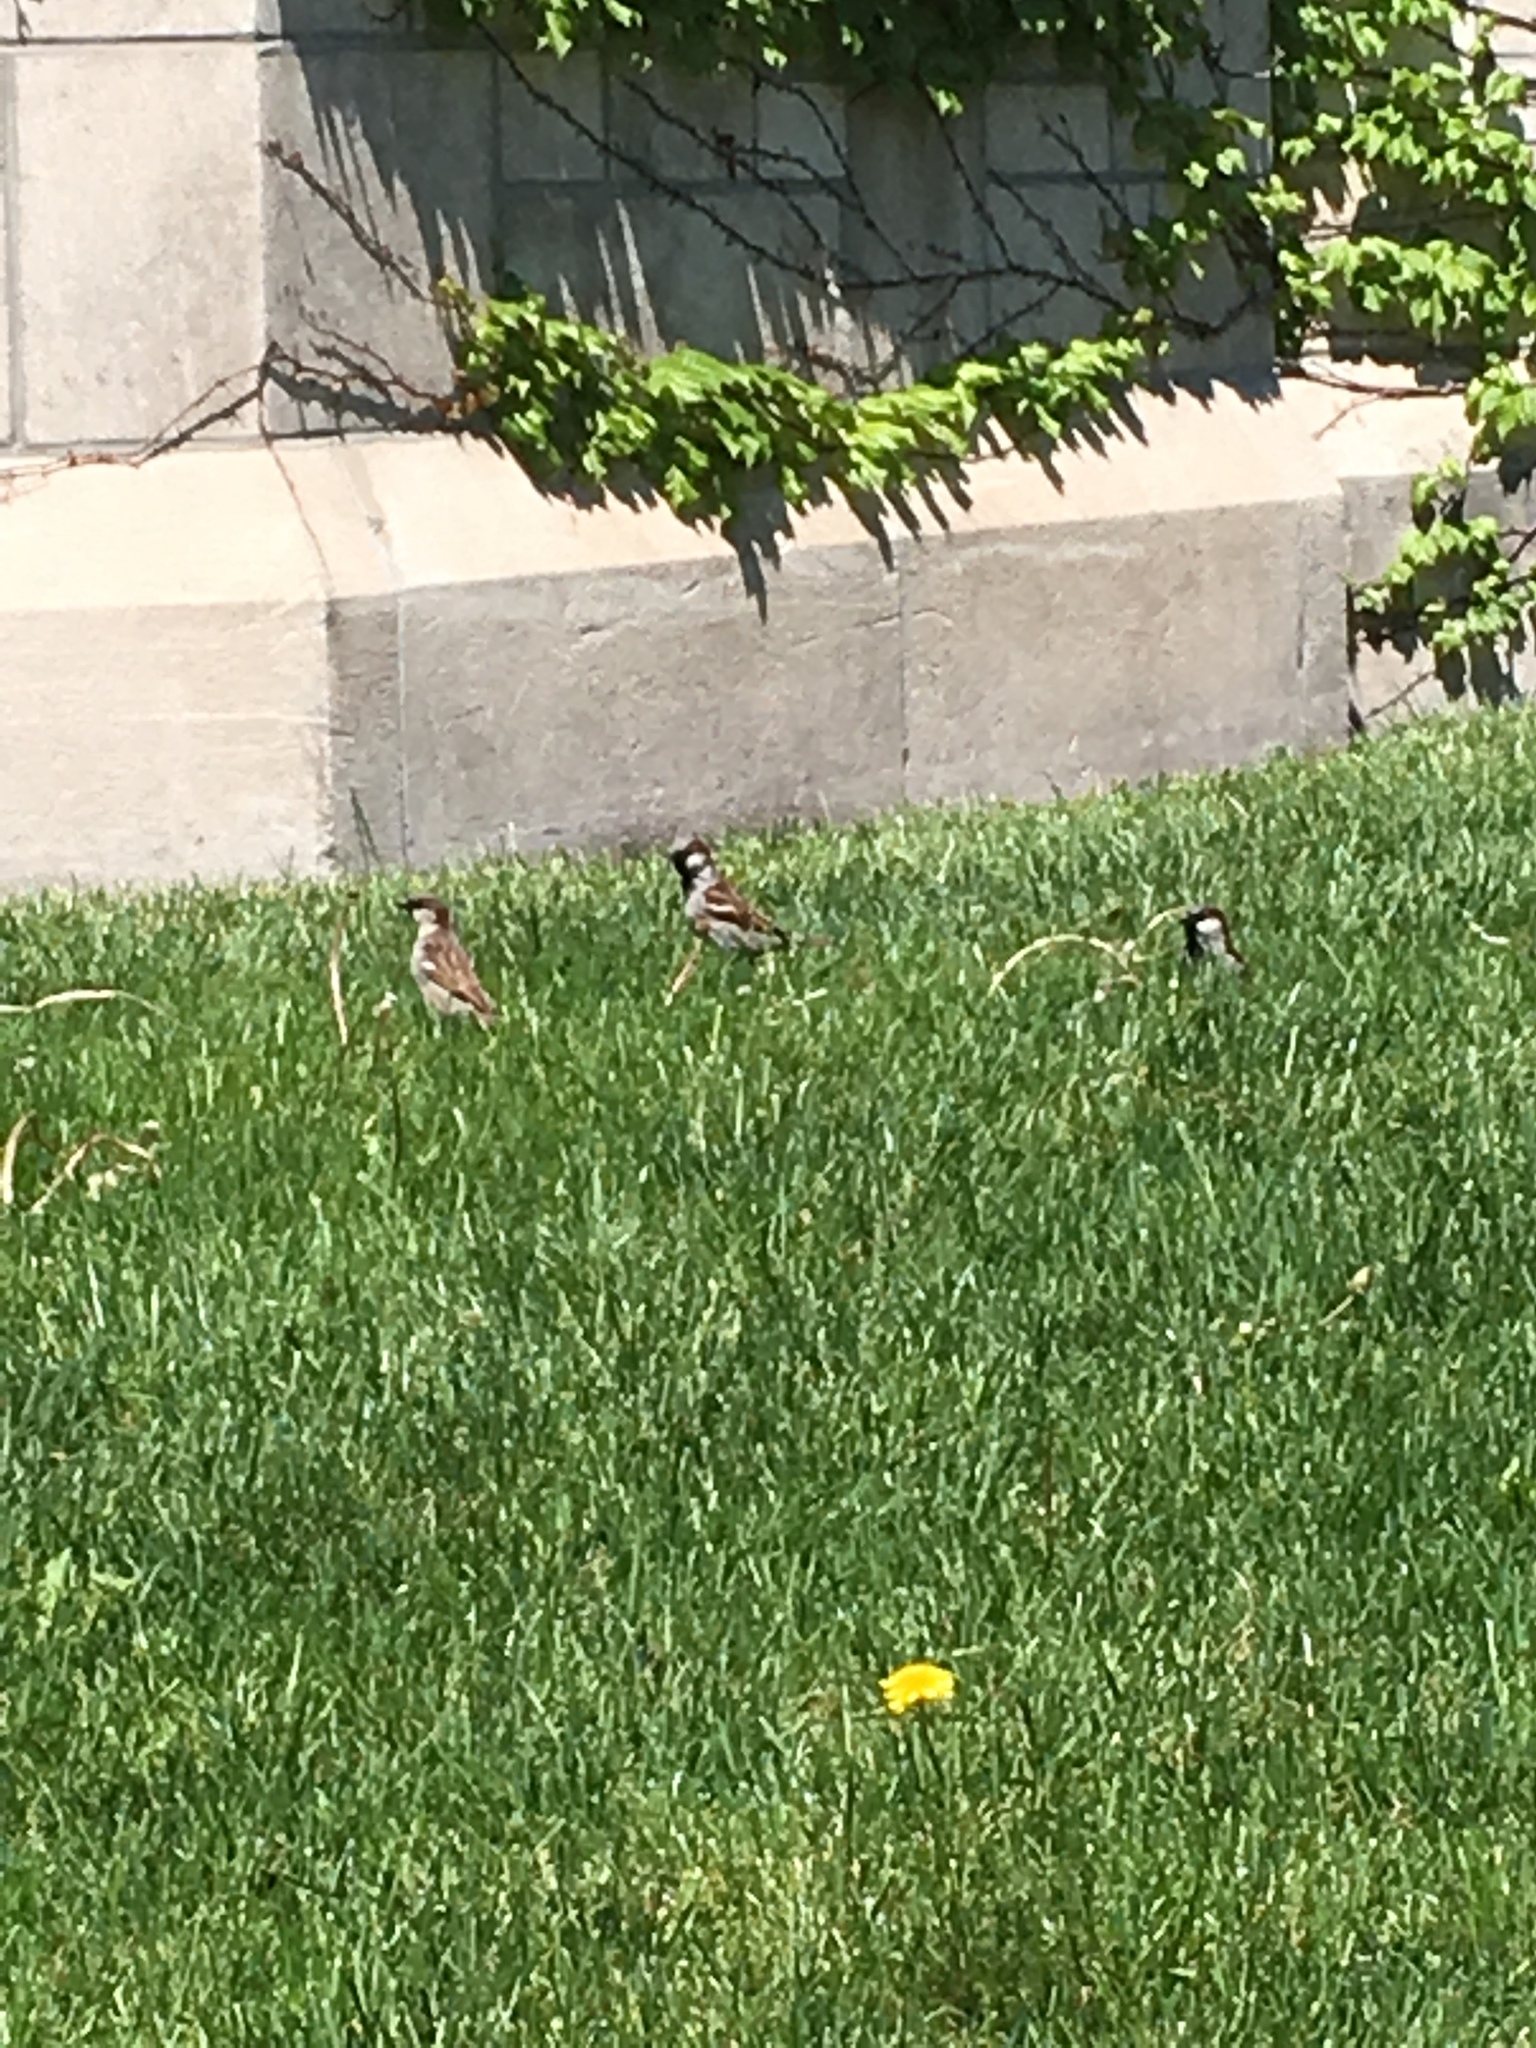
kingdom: Animalia
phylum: Chordata
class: Aves
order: Passeriformes
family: Passeridae
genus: Passer
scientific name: Passer domesticus
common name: House sparrow
